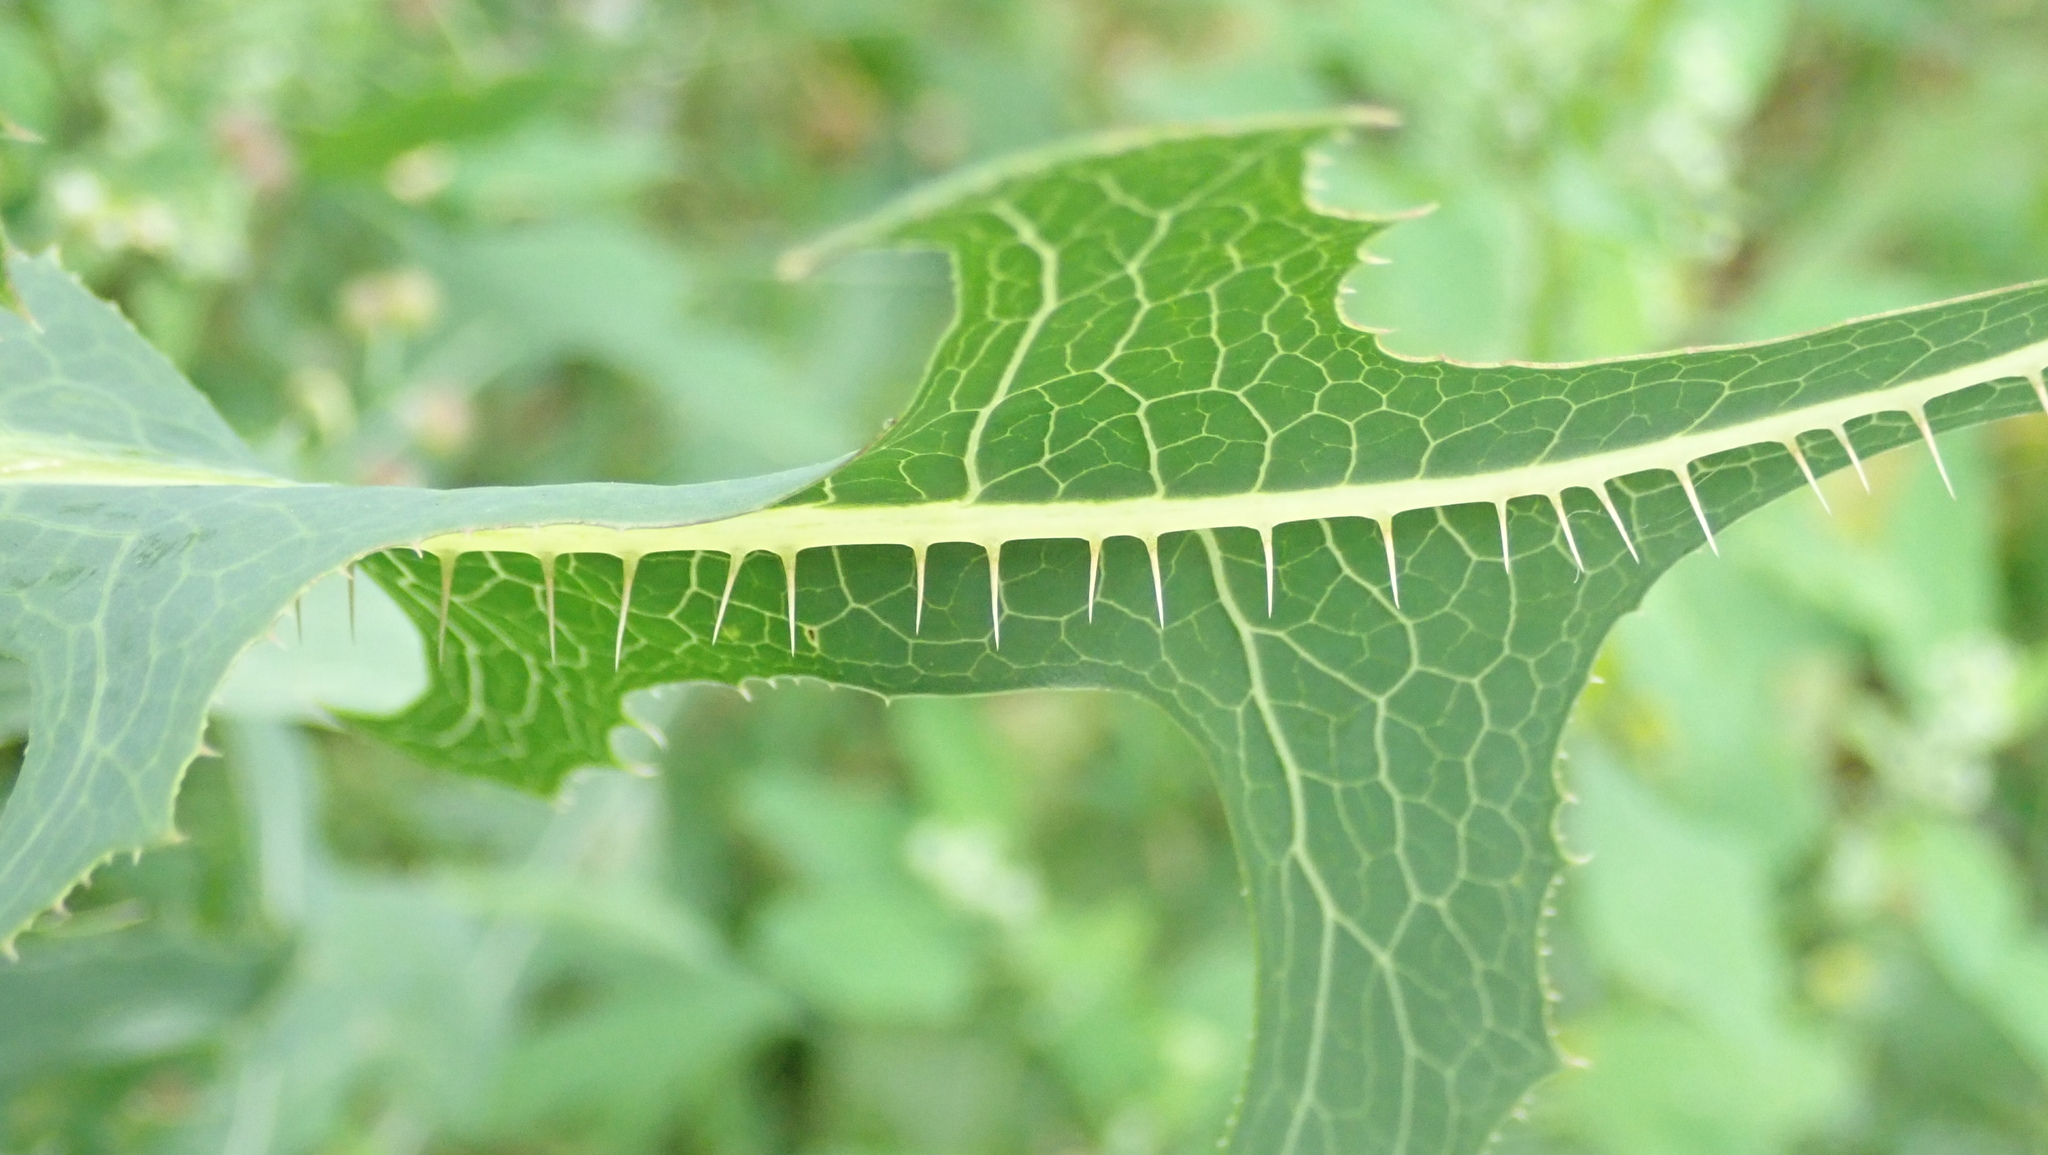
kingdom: Plantae
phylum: Tracheophyta
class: Magnoliopsida
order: Asterales
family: Asteraceae
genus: Lactuca
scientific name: Lactuca serriola
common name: Prickly lettuce
